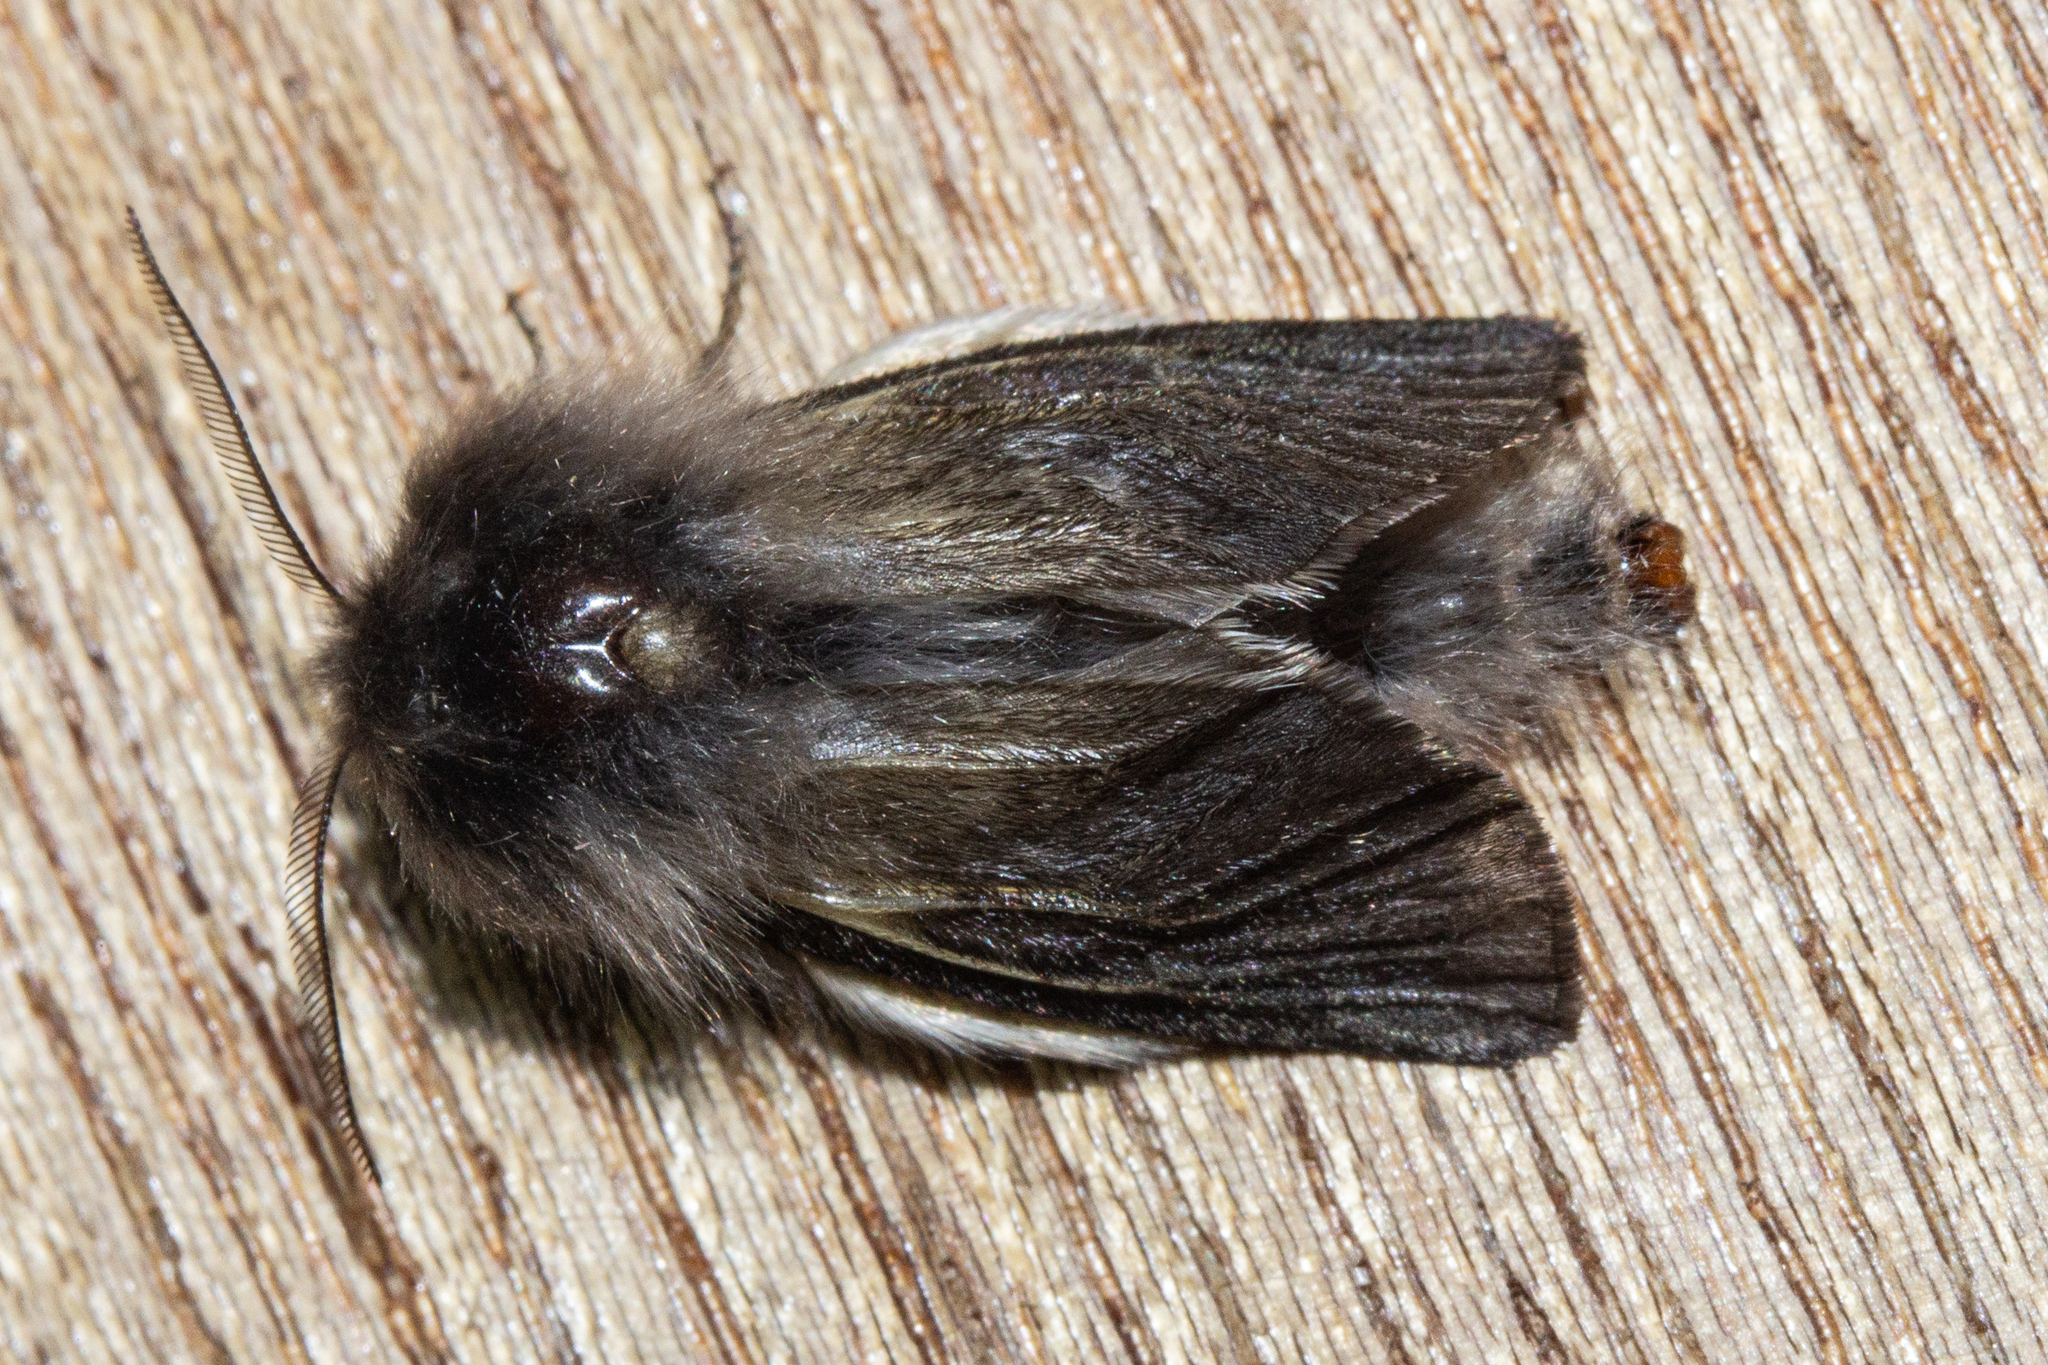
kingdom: Animalia
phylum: Arthropoda
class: Insecta
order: Lepidoptera
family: Psychidae
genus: Orophora
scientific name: Orophora unicolor
